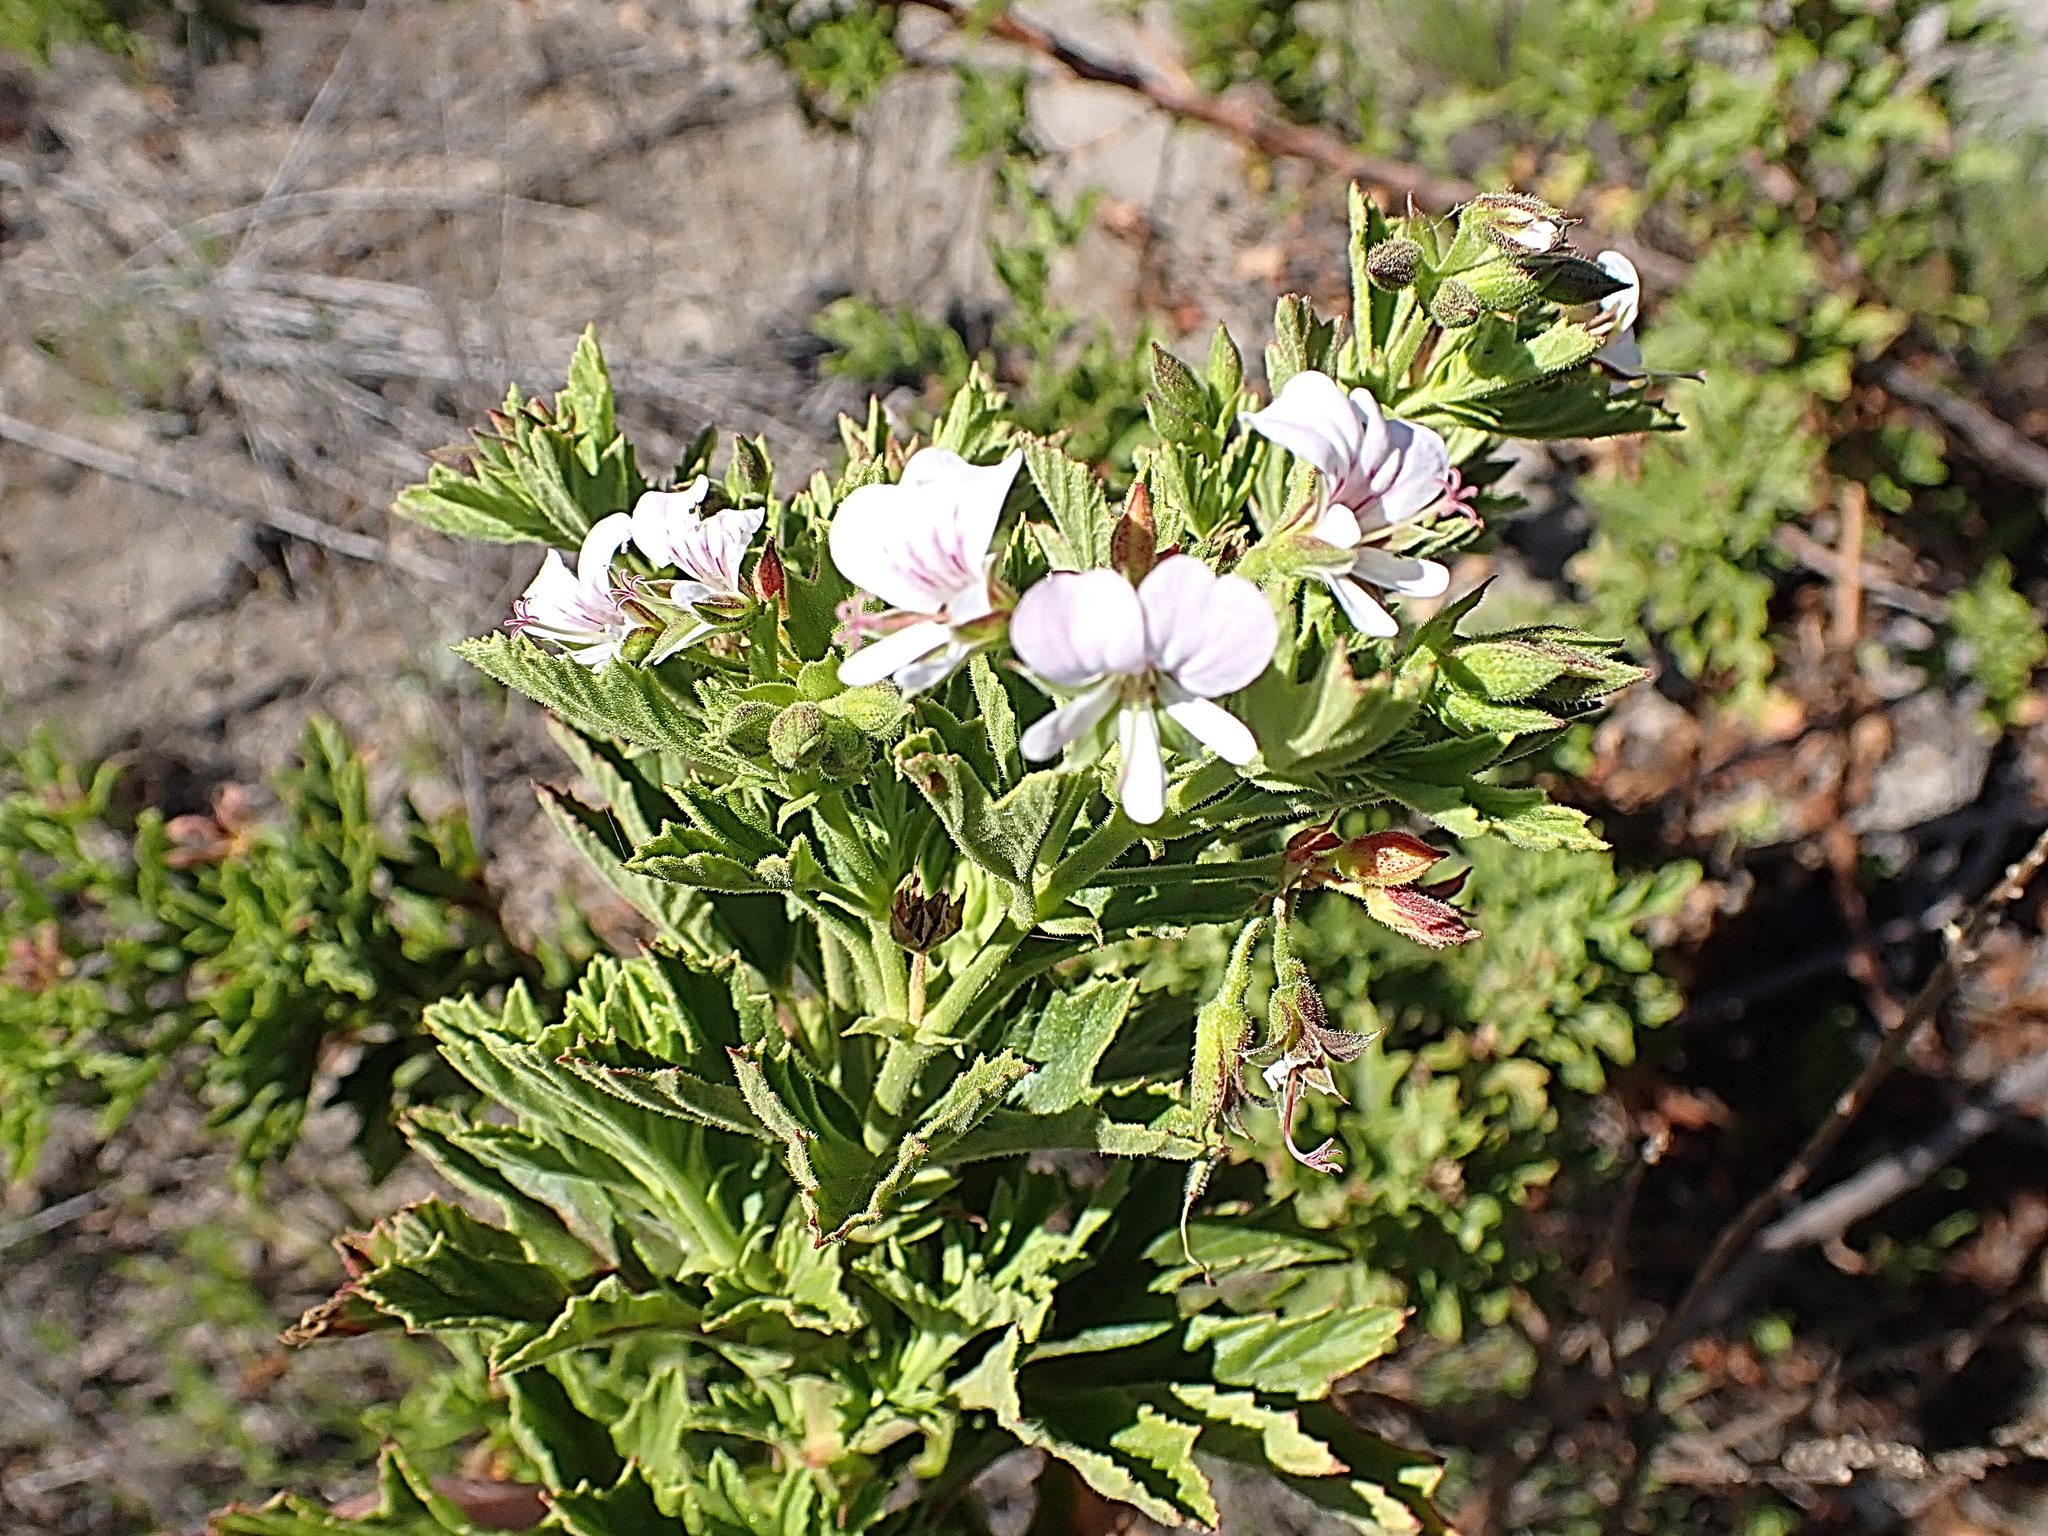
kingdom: Plantae
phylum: Tracheophyta
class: Magnoliopsida
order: Geraniales
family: Geraniaceae
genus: Pelargonium
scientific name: Pelargonium scabrum
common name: Apricot geranium
